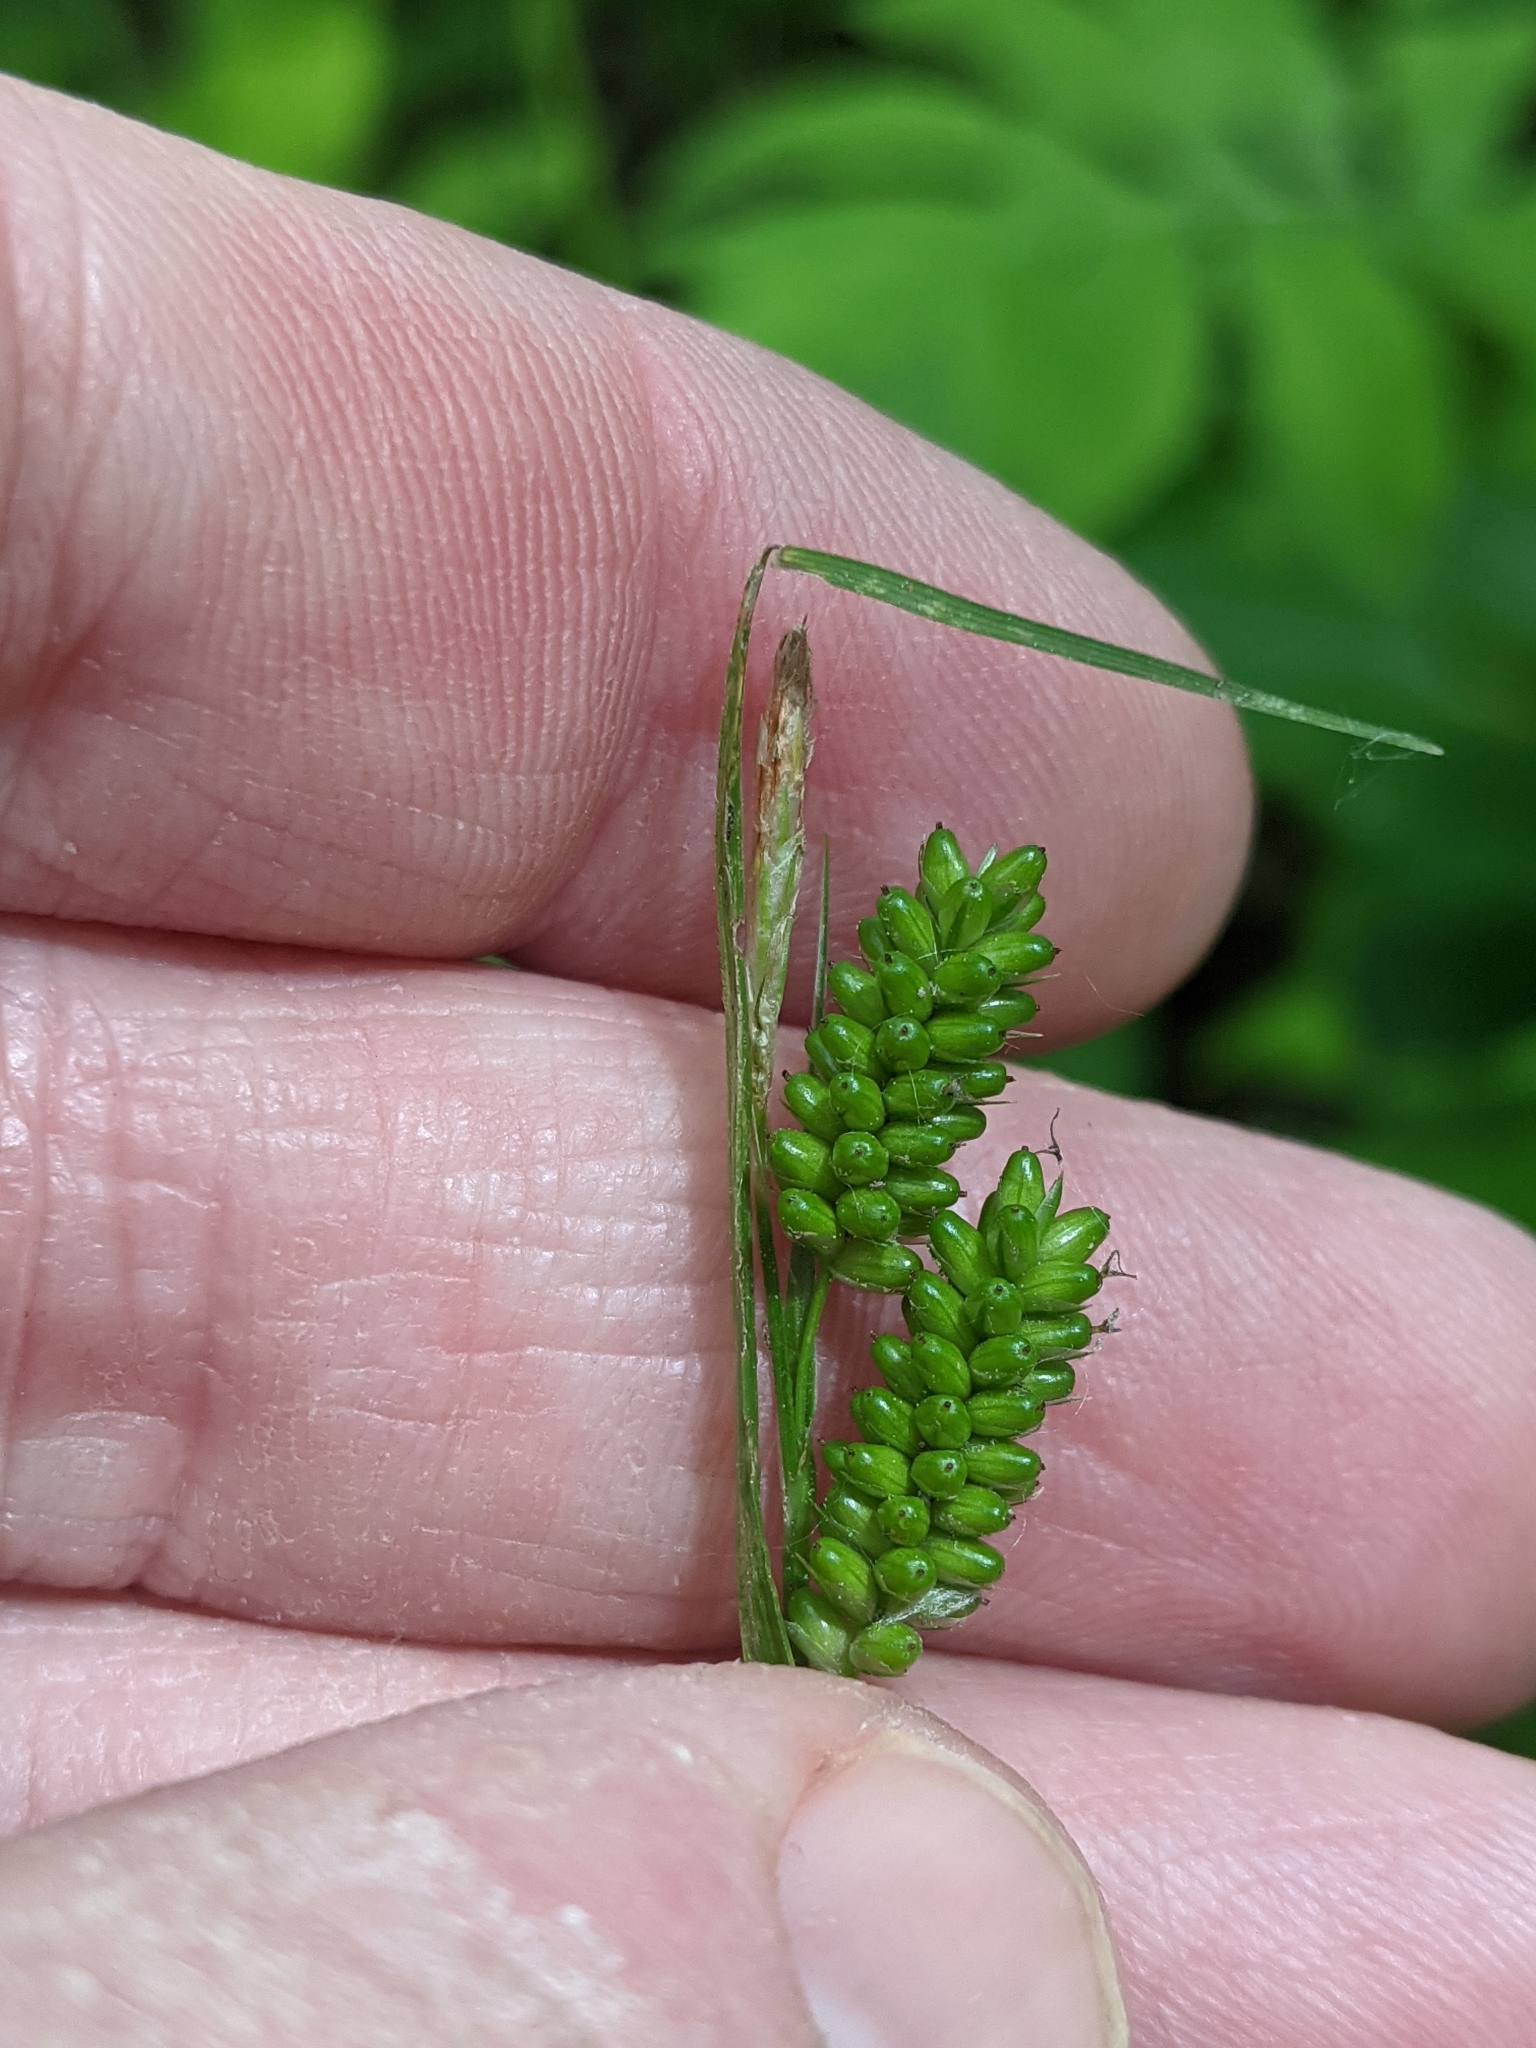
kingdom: Plantae
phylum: Tracheophyta
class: Liliopsida
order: Poales
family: Cyperaceae
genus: Carex
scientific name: Carex pallescens
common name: Pale sedge
